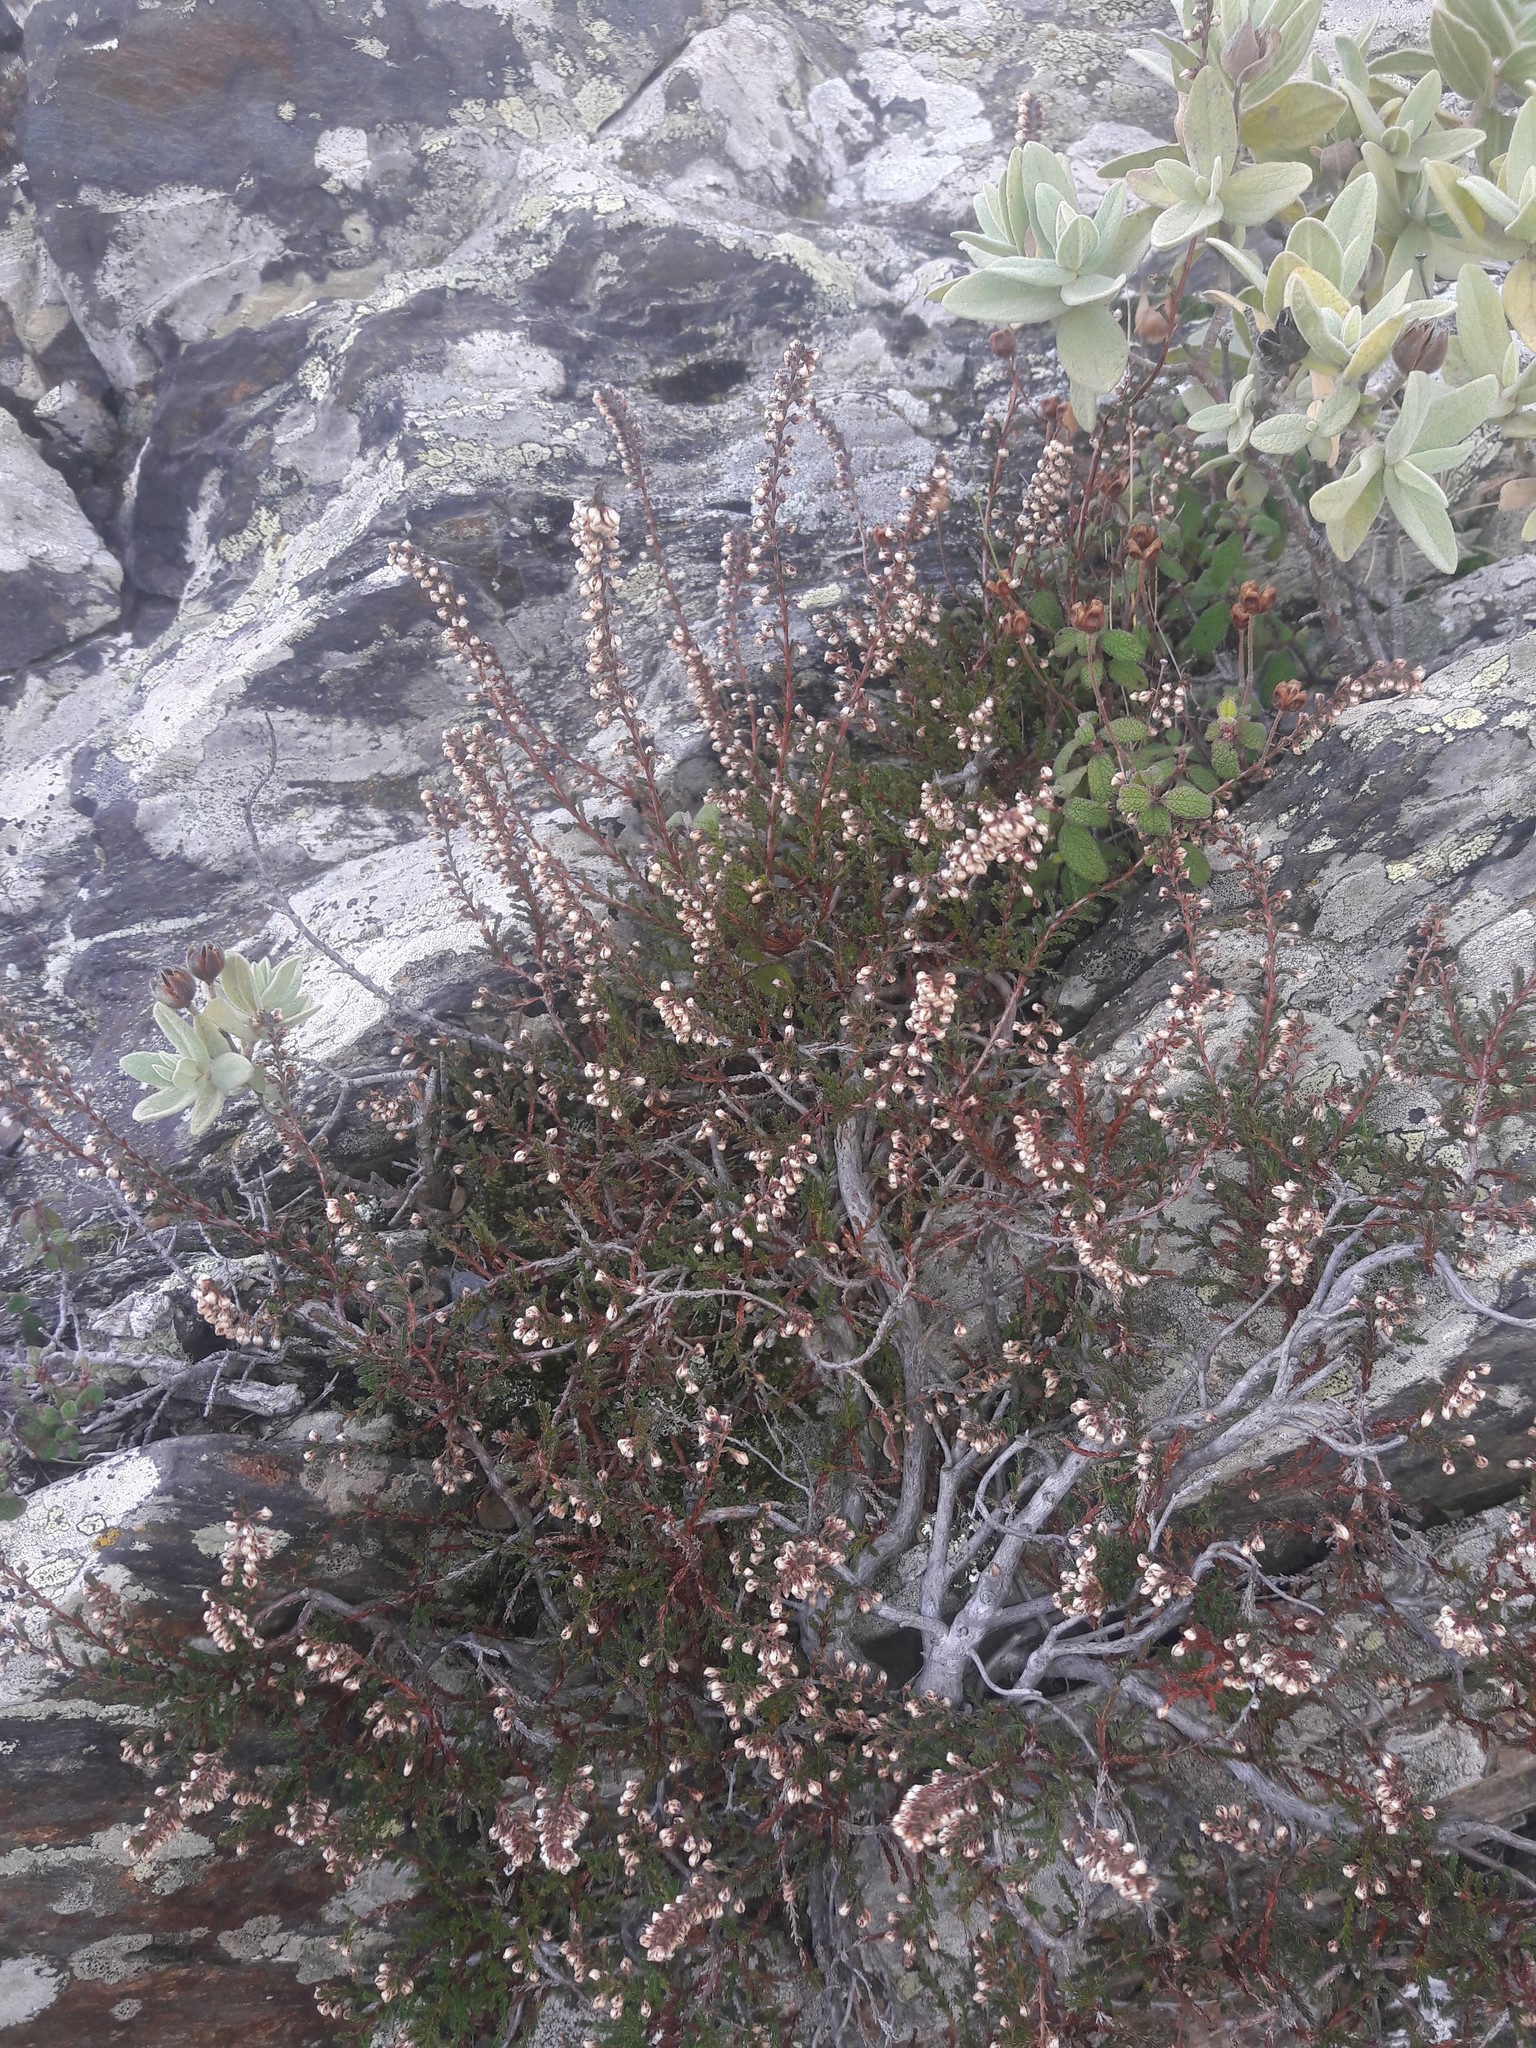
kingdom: Plantae
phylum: Tracheophyta
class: Magnoliopsida
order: Ericales
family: Ericaceae
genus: Calluna
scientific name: Calluna vulgaris
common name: Heather
